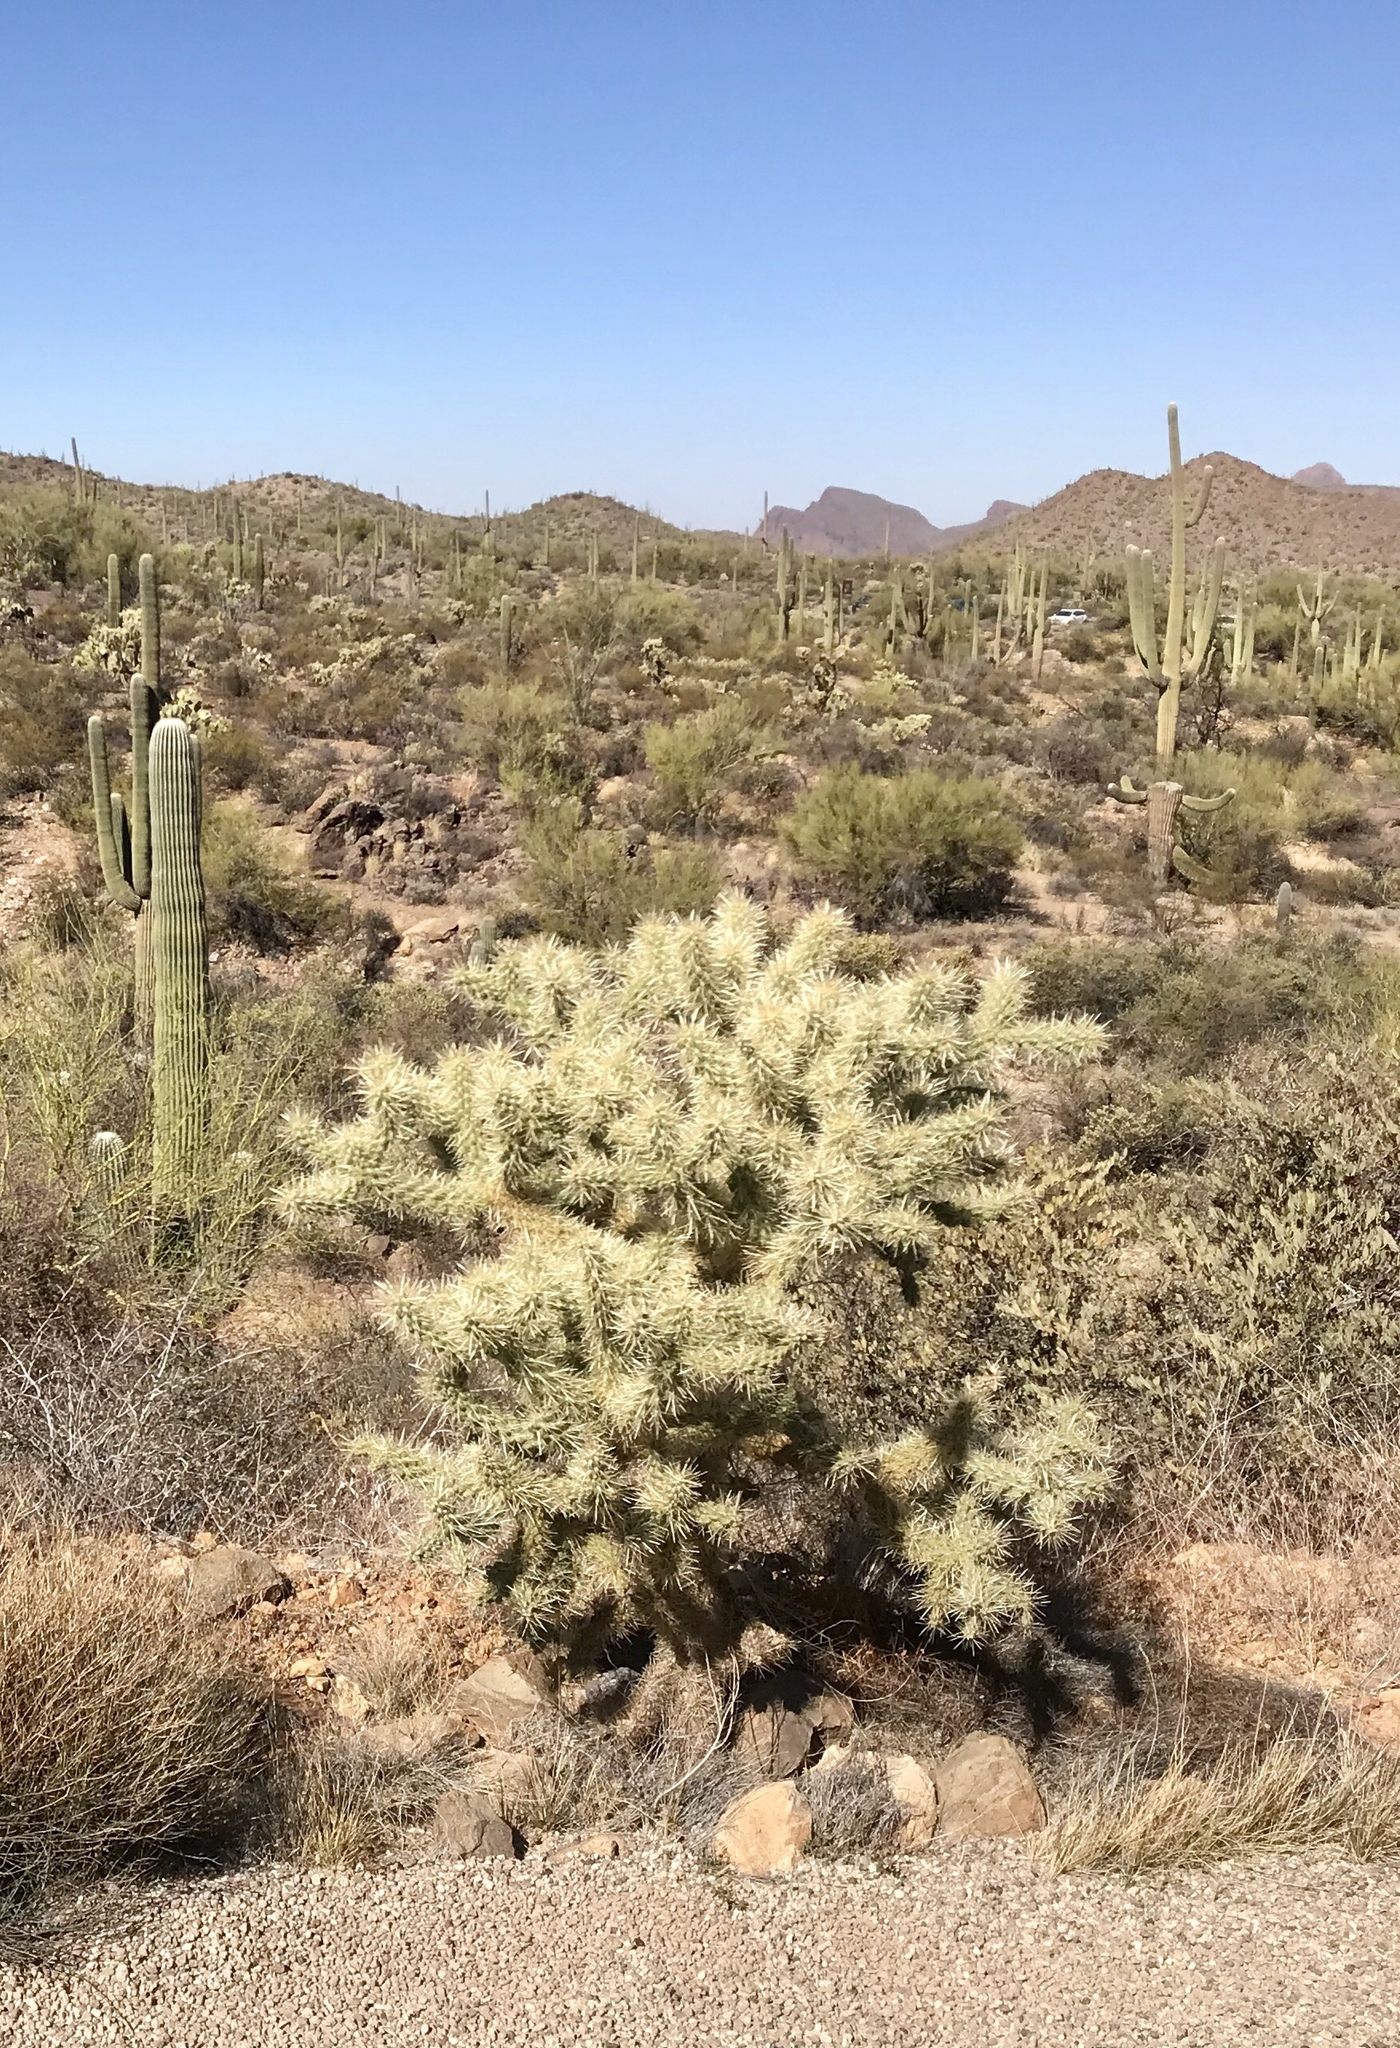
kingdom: Plantae
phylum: Tracheophyta
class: Magnoliopsida
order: Caryophyllales
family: Cactaceae
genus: Cylindropuntia
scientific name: Cylindropuntia fulgida
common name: Jumping cholla
